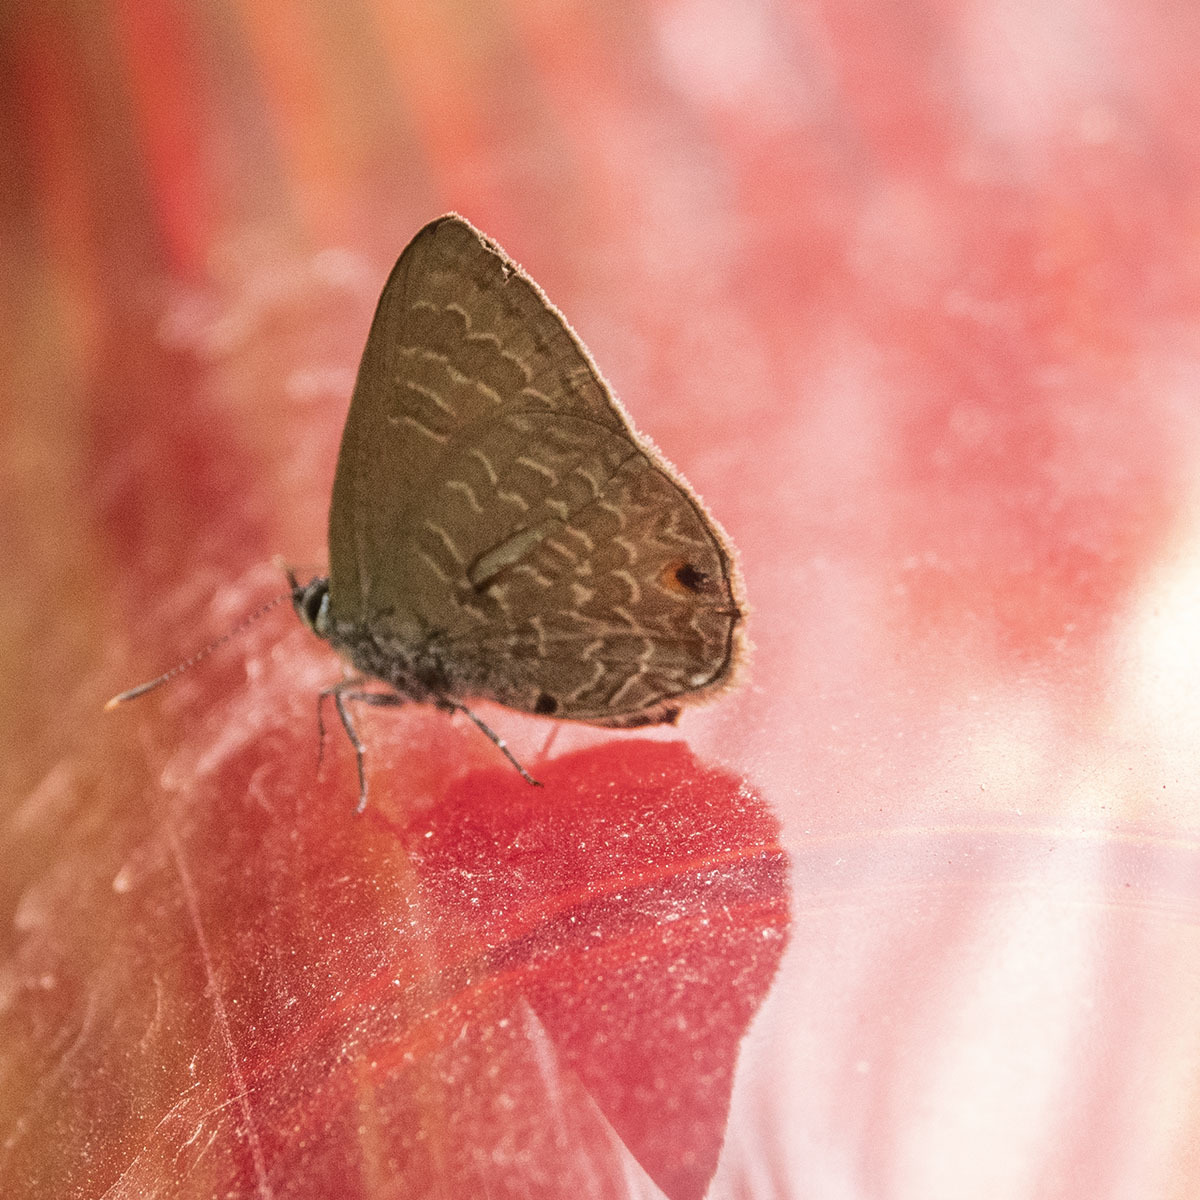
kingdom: Animalia
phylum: Arthropoda
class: Insecta
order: Lepidoptera
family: Lycaenidae
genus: Anthene
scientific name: Anthene emolus
